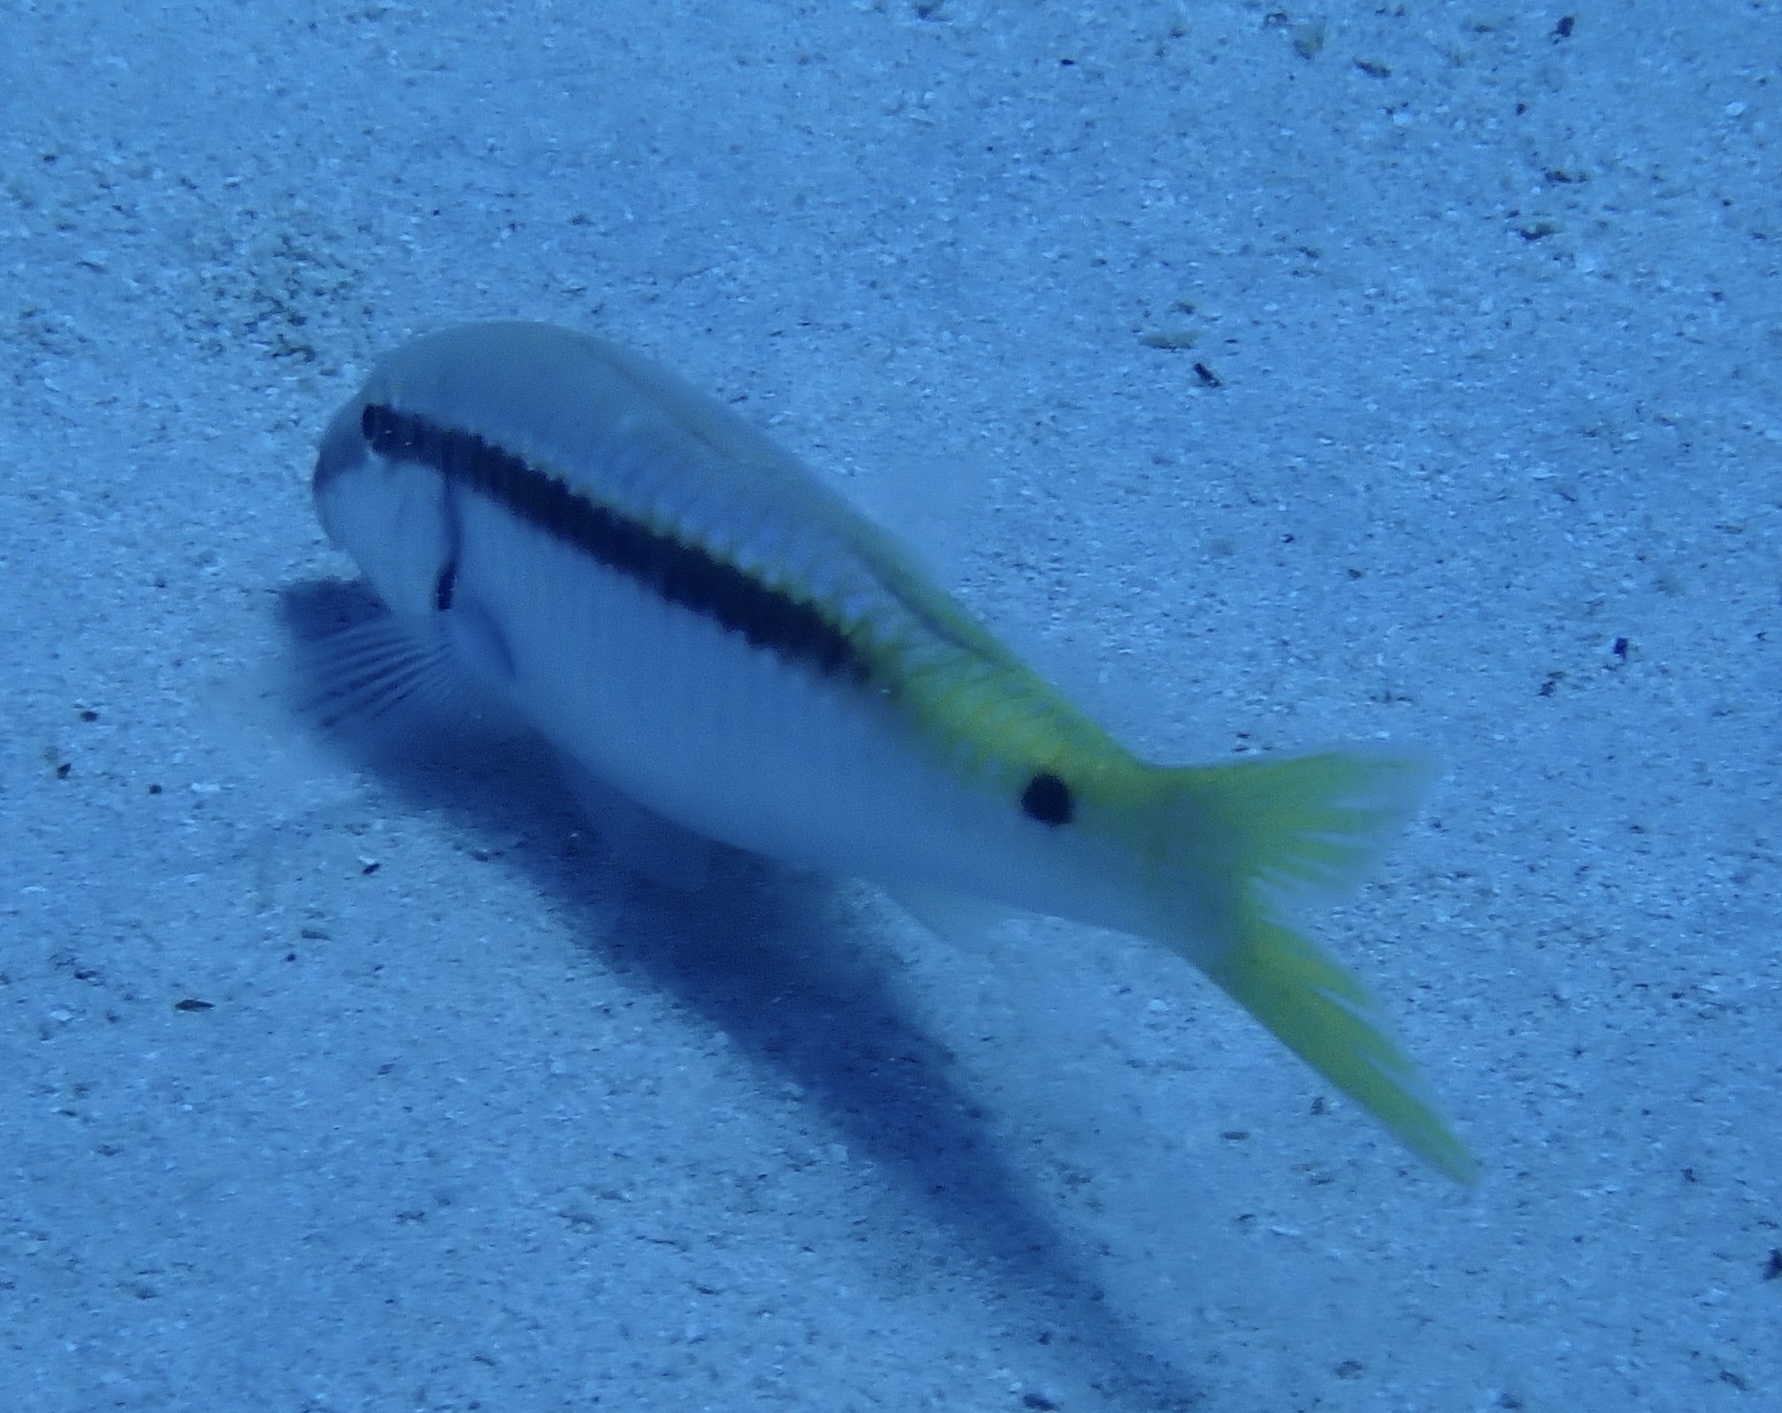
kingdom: Animalia
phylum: Chordata
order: Perciformes
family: Mullidae
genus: Parupeneus
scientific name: Parupeneus forsskali
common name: Red sea goatfish
